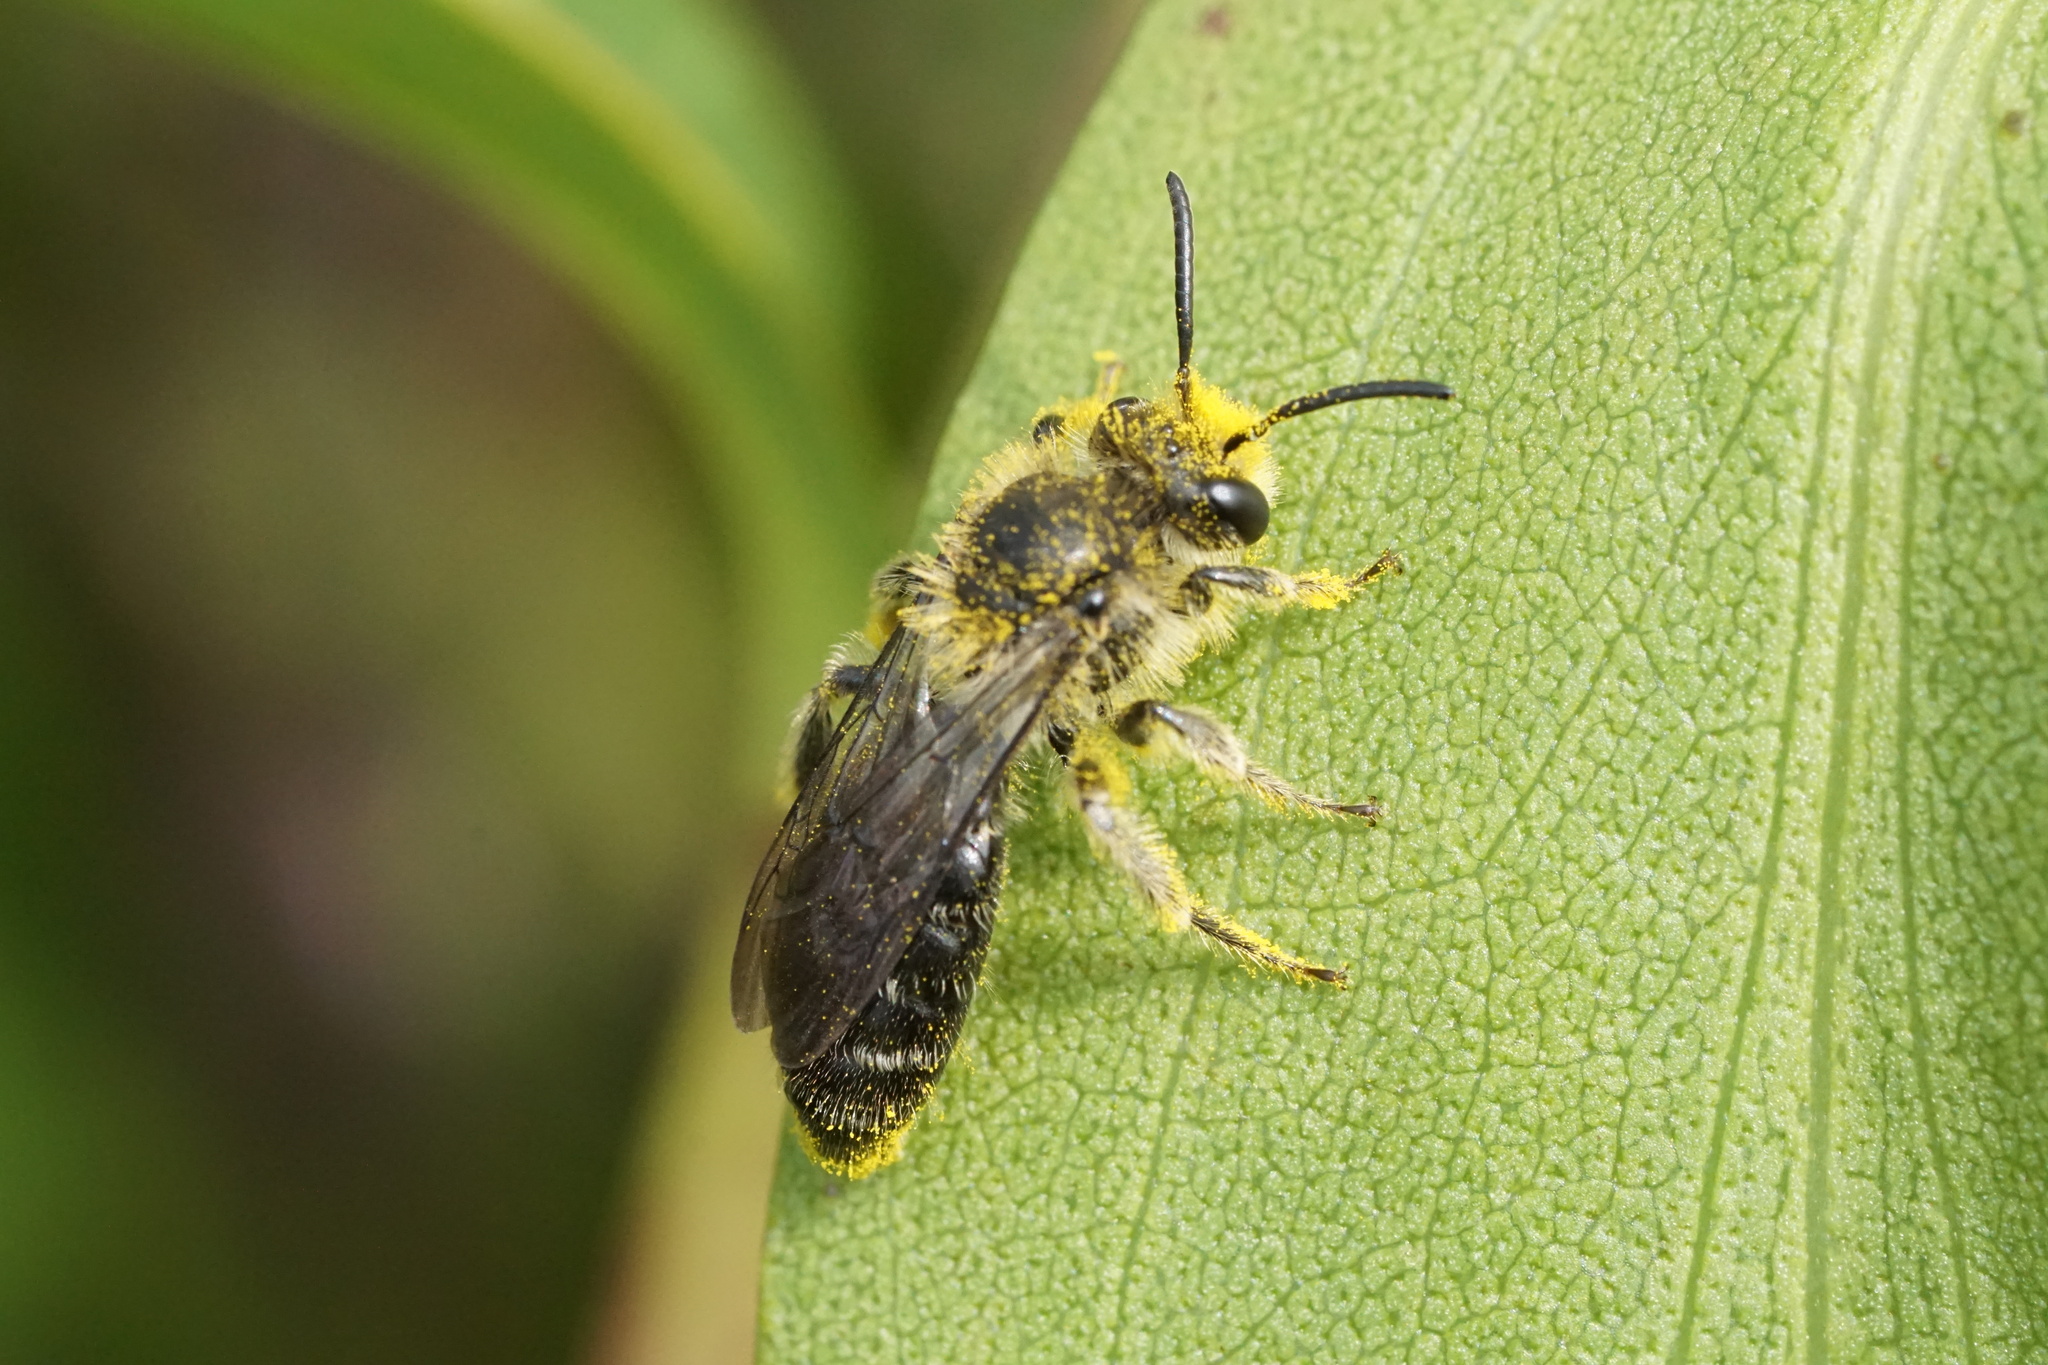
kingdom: Animalia
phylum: Arthropoda
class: Insecta
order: Hymenoptera
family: Andrenidae
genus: Andrena
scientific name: Andrena asteris
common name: Aster mining bee
